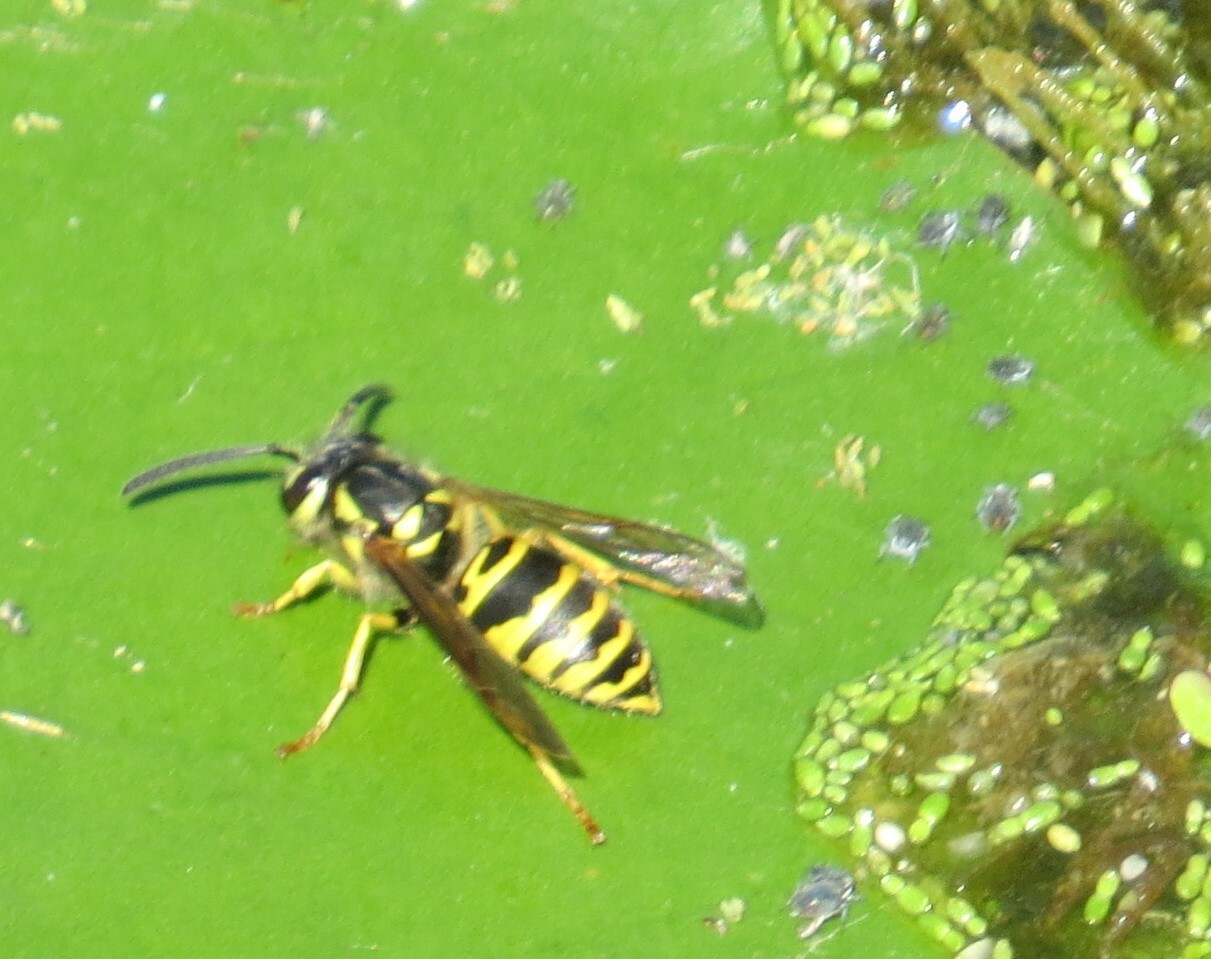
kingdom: Animalia
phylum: Arthropoda
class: Insecta
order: Hymenoptera
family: Vespidae
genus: Vespula
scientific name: Vespula maculifrons
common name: Eastern yellowjacket
